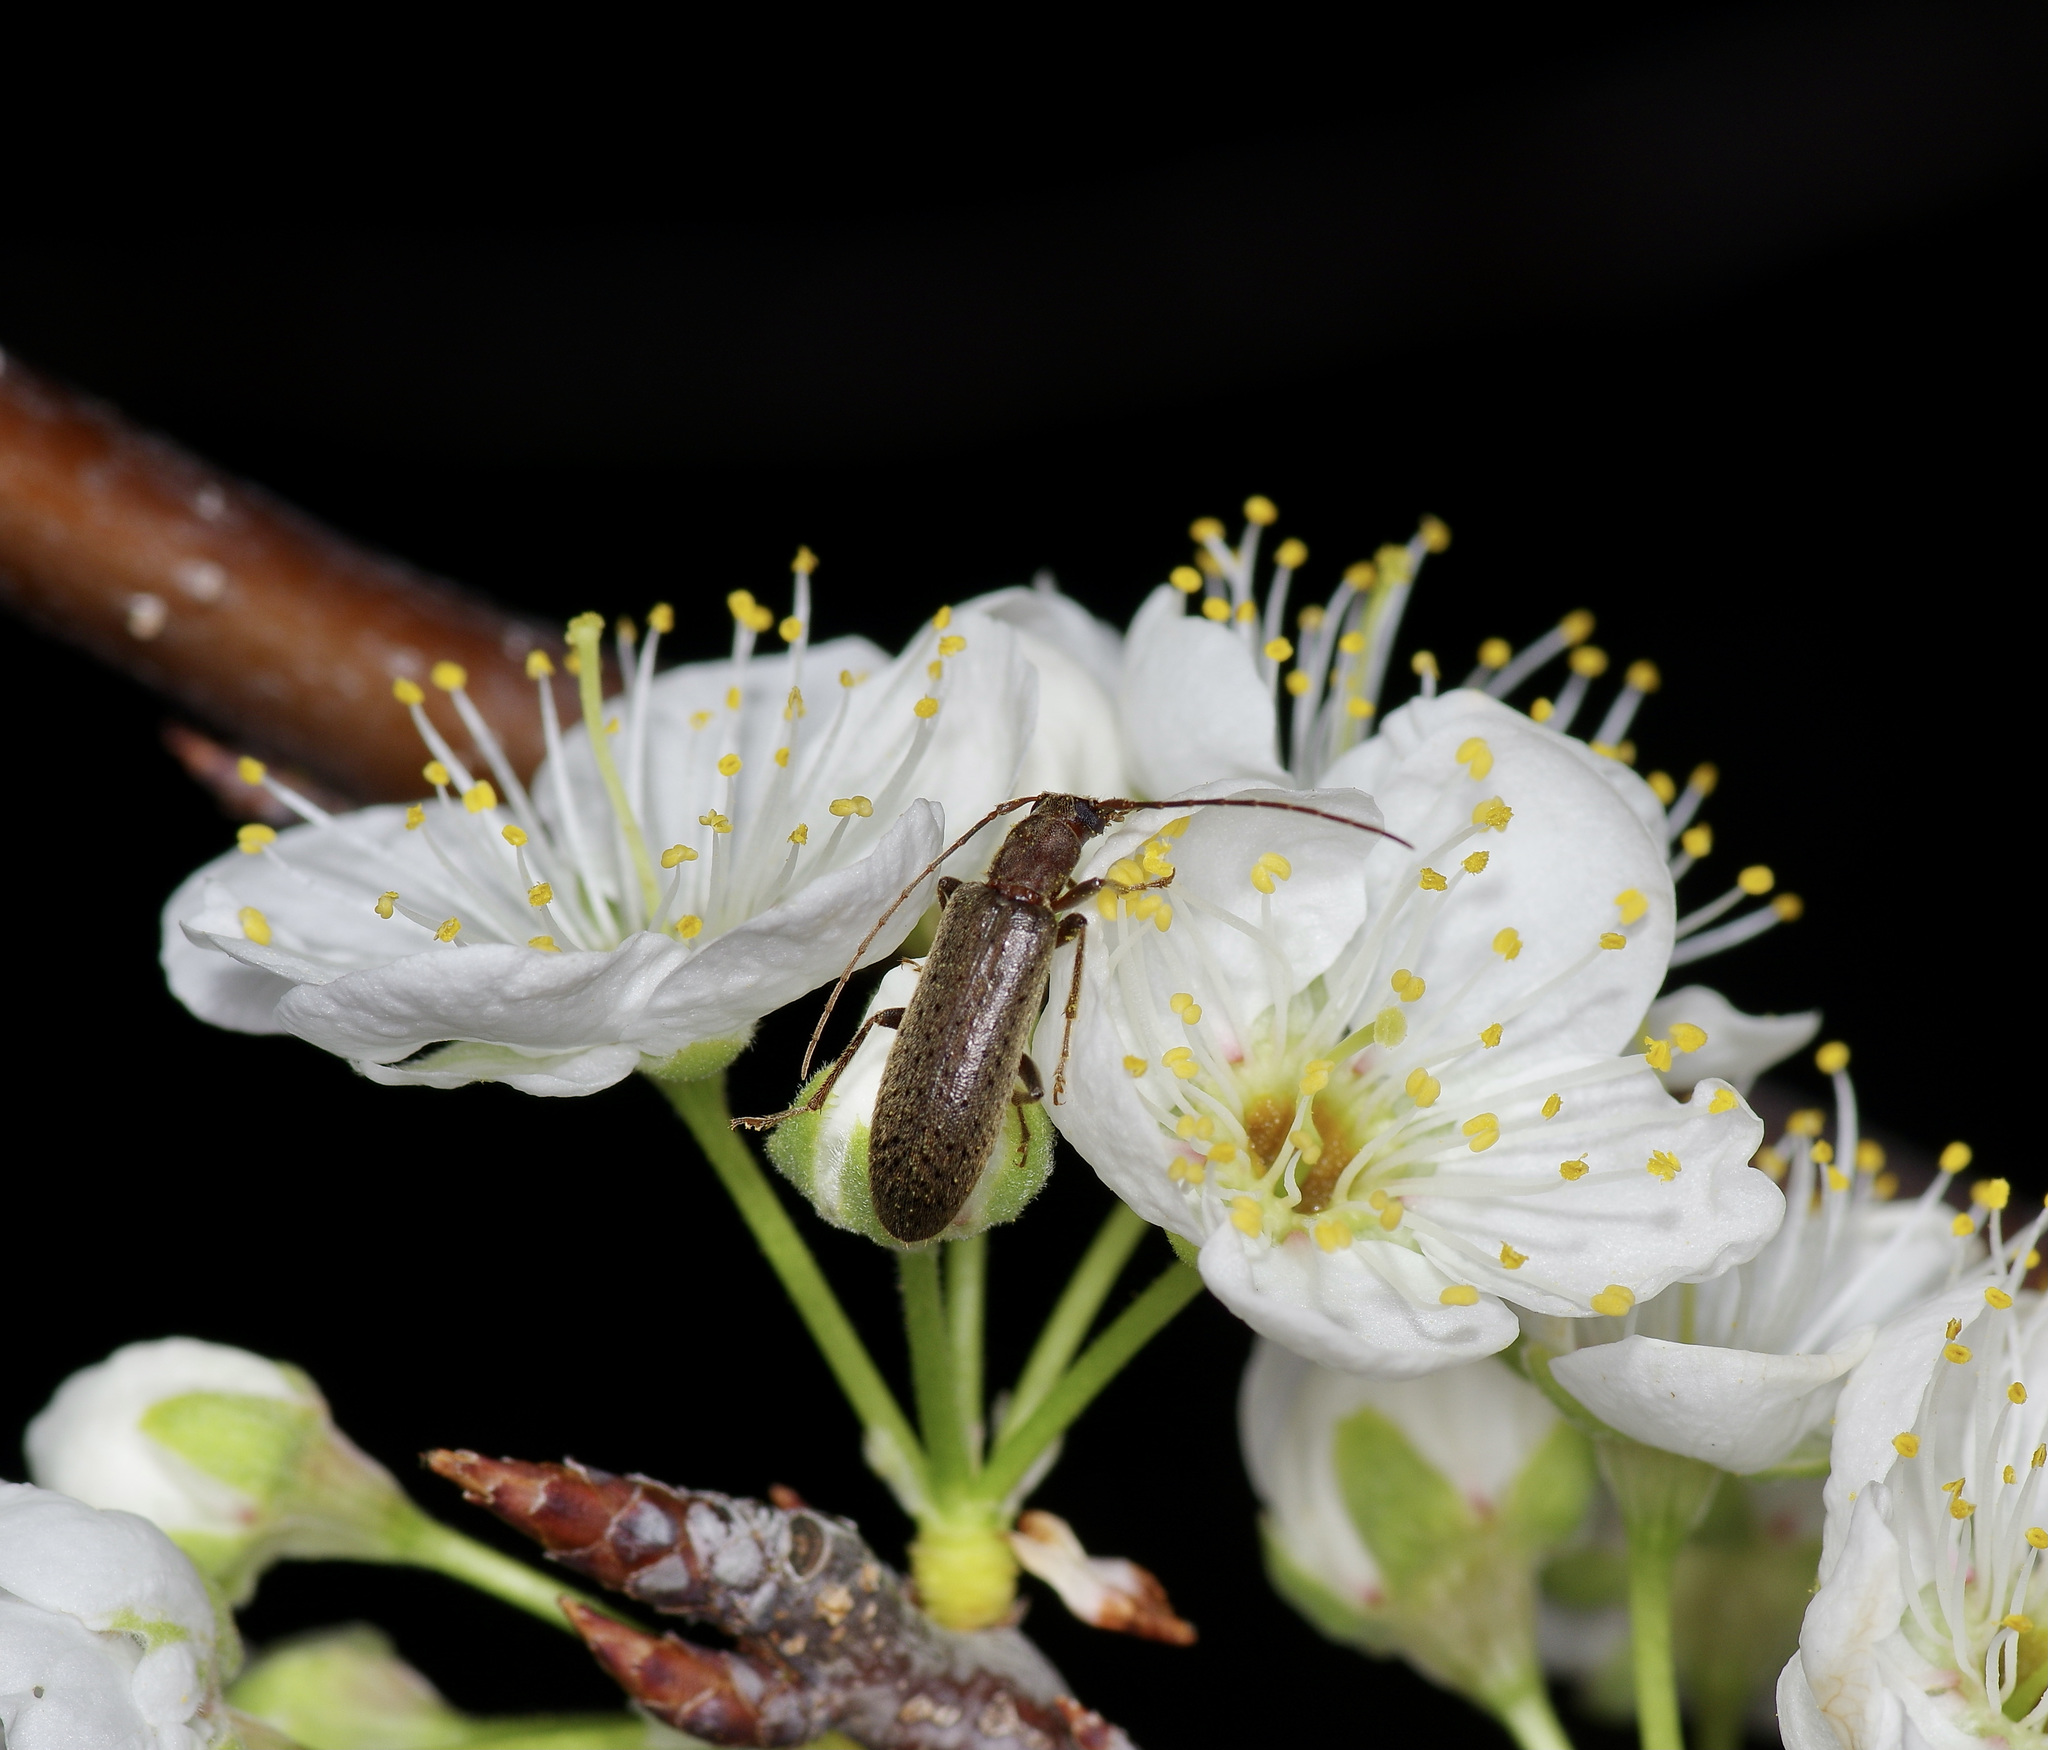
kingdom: Animalia
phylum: Arthropoda
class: Insecta
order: Coleoptera
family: Oedemeridae
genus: Sparedrus
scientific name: Sparedrus aspersus
